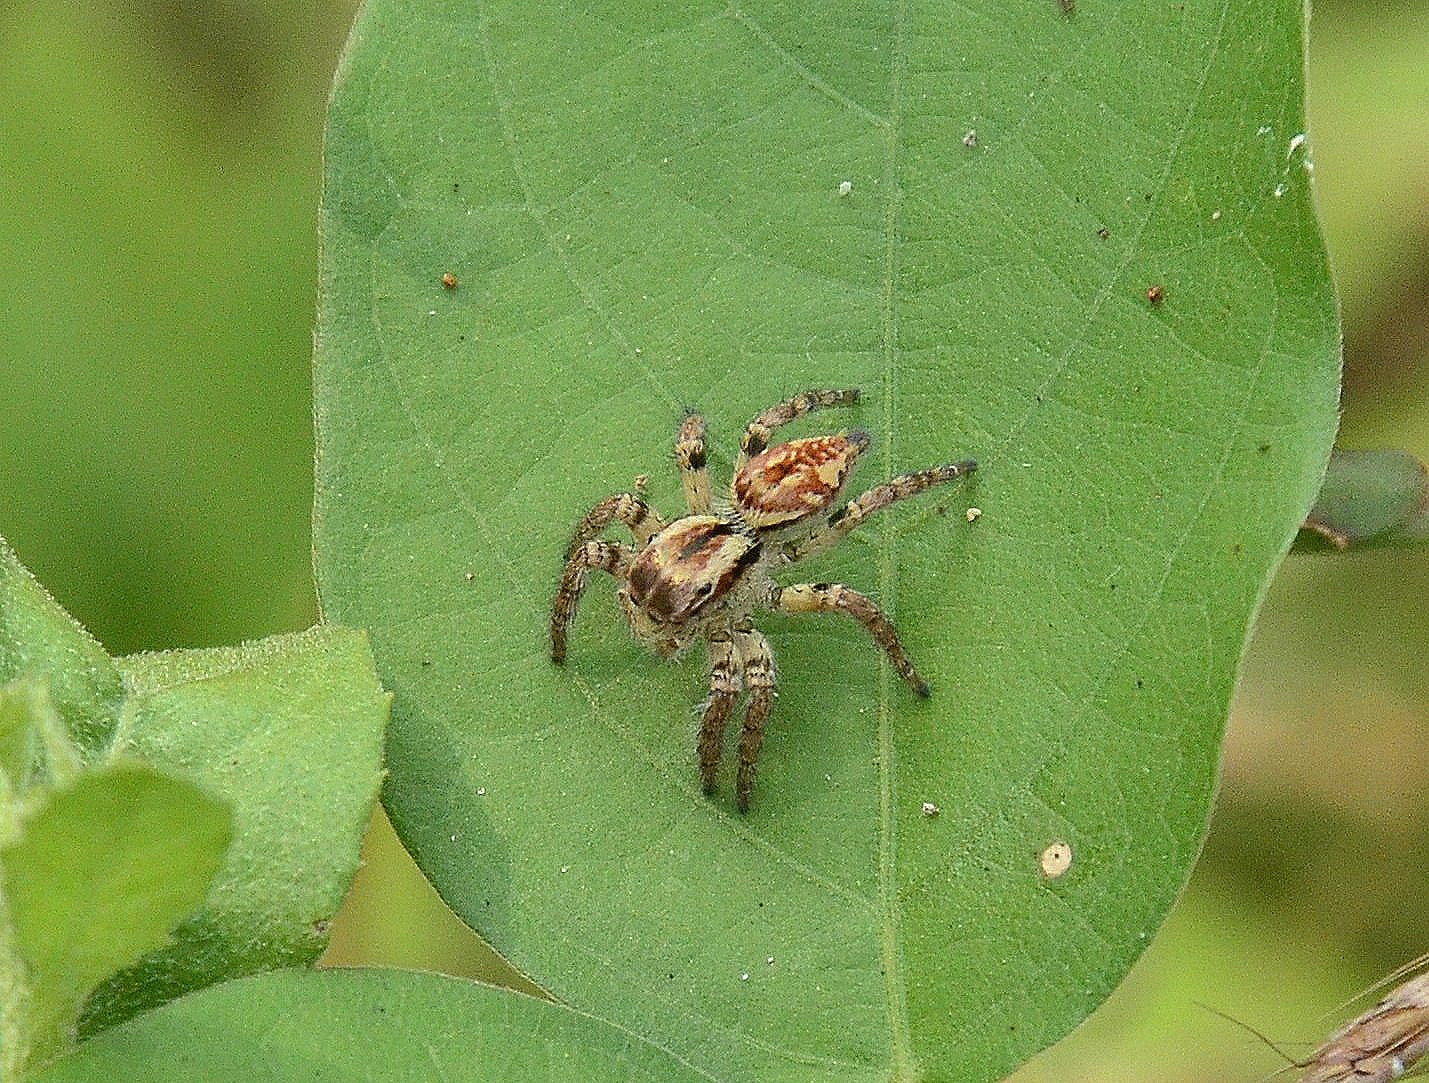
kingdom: Animalia
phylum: Arthropoda
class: Arachnida
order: Araneae
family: Salticidae
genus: Carrhotus
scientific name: Carrhotus viduus
